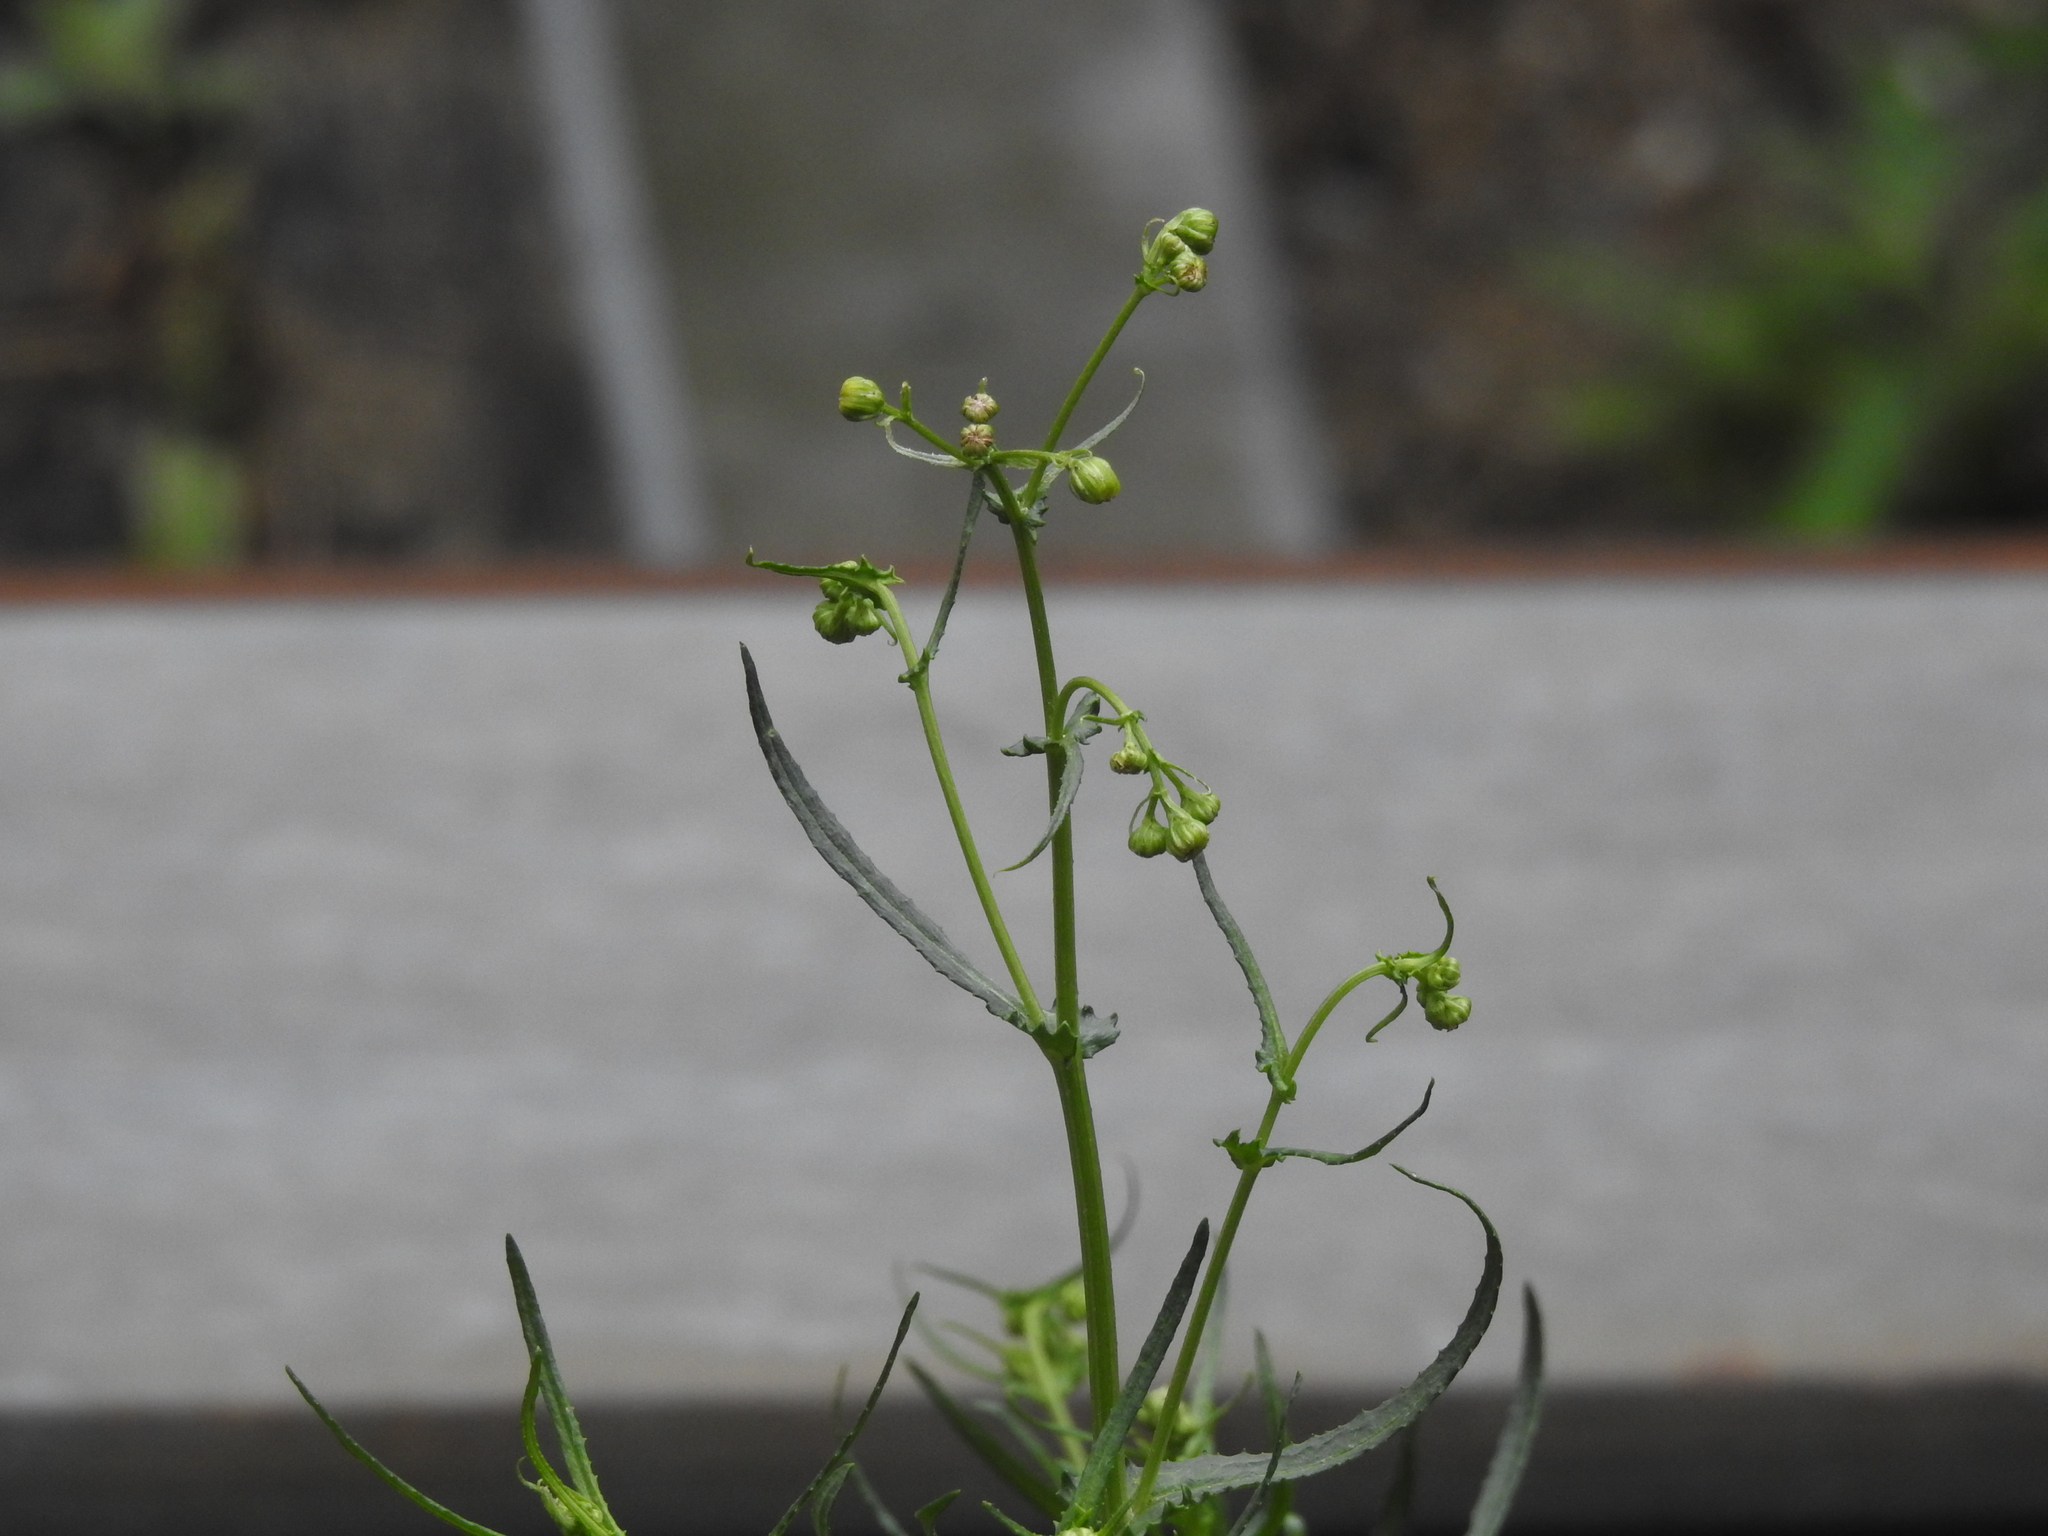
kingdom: Plantae
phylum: Tracheophyta
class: Magnoliopsida
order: Asterales
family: Asteraceae
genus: Senecio
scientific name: Senecio inaequidens
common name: Narrow-leaved ragwort
